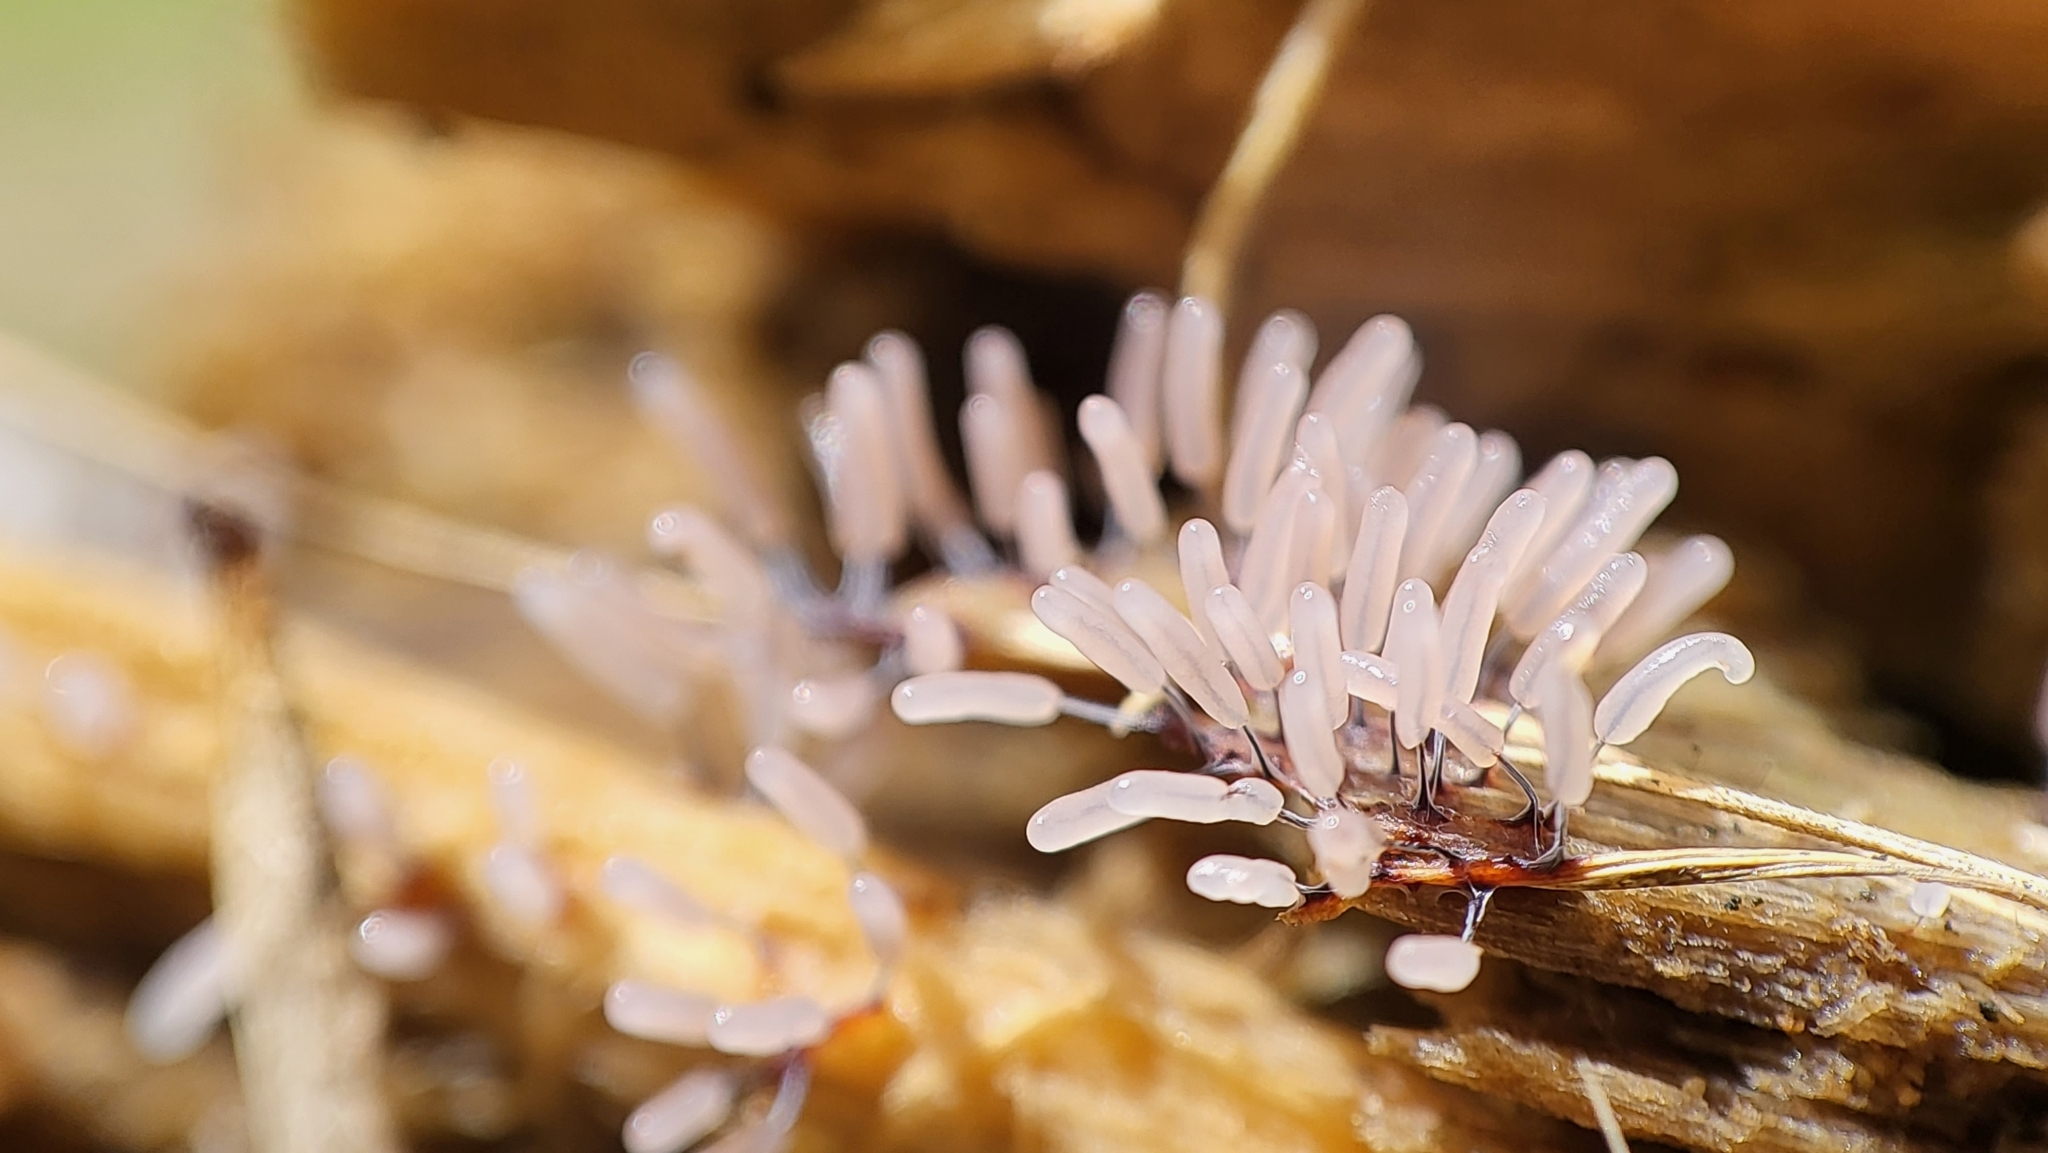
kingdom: Protozoa
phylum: Mycetozoa
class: Myxomycetes
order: Stemonitidales
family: Stemonitidaceae
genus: Stemonitopsis
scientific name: Stemonitopsis typhina
